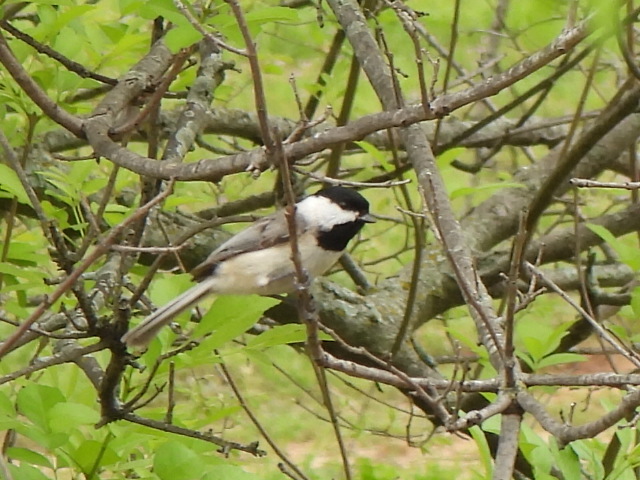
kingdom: Animalia
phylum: Chordata
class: Aves
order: Passeriformes
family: Paridae
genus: Poecile
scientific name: Poecile carolinensis
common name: Carolina chickadee
